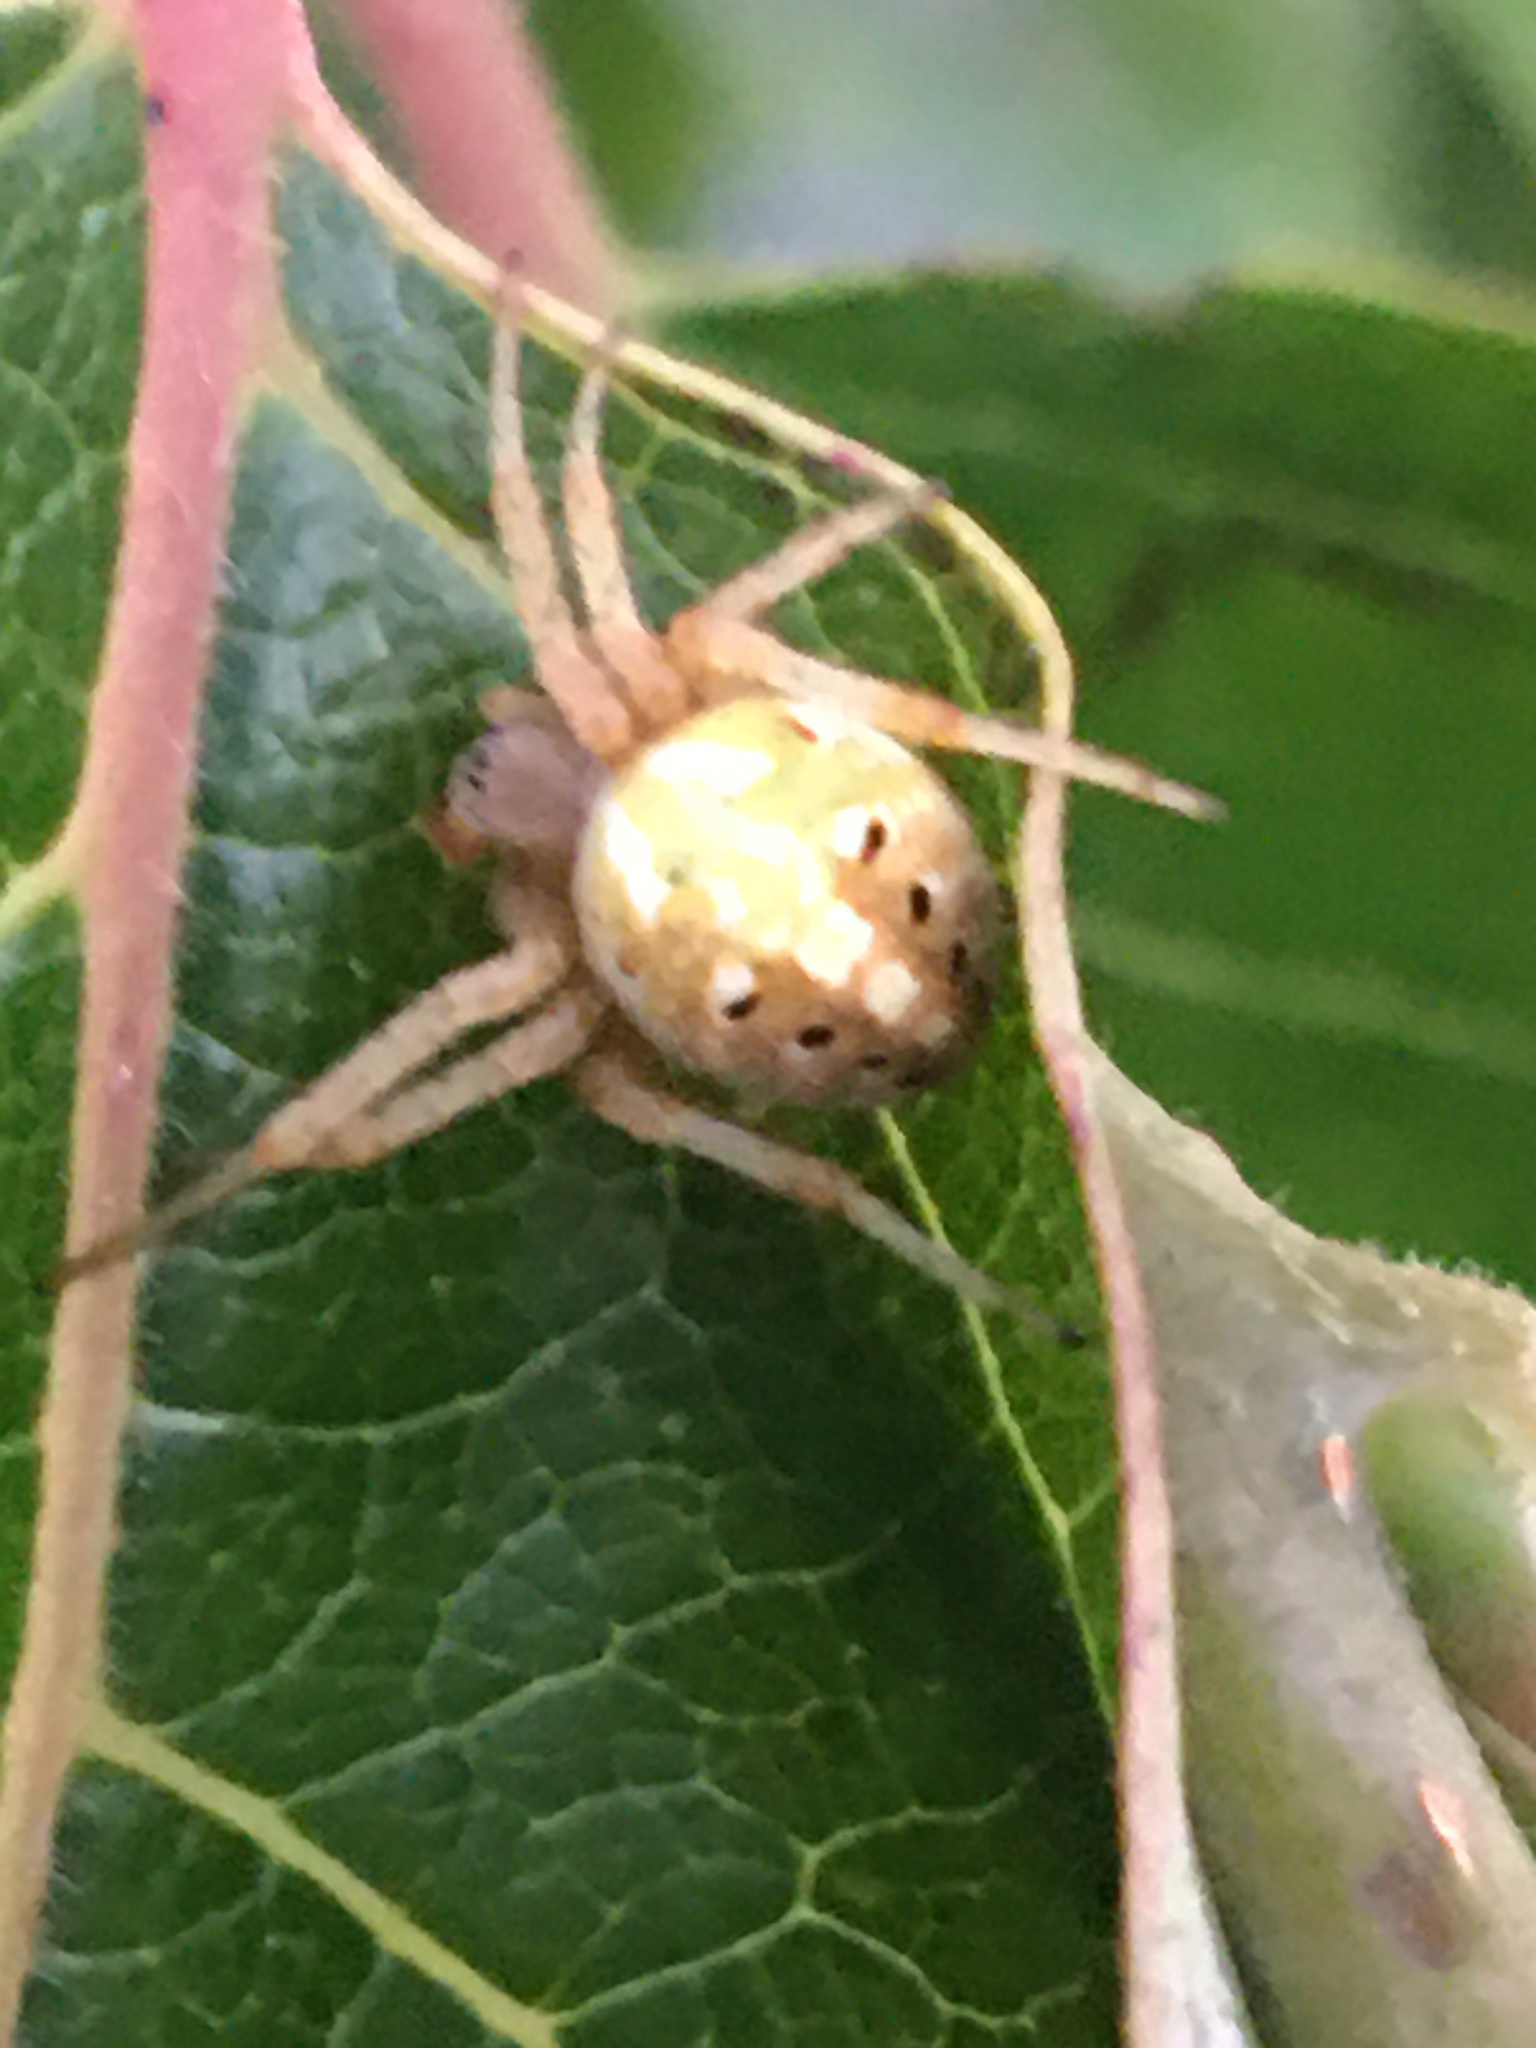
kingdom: Animalia
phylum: Arthropoda
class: Arachnida
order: Araneae
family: Araneidae
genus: Neoscona
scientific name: Neoscona arabesca
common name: Orb weavers
